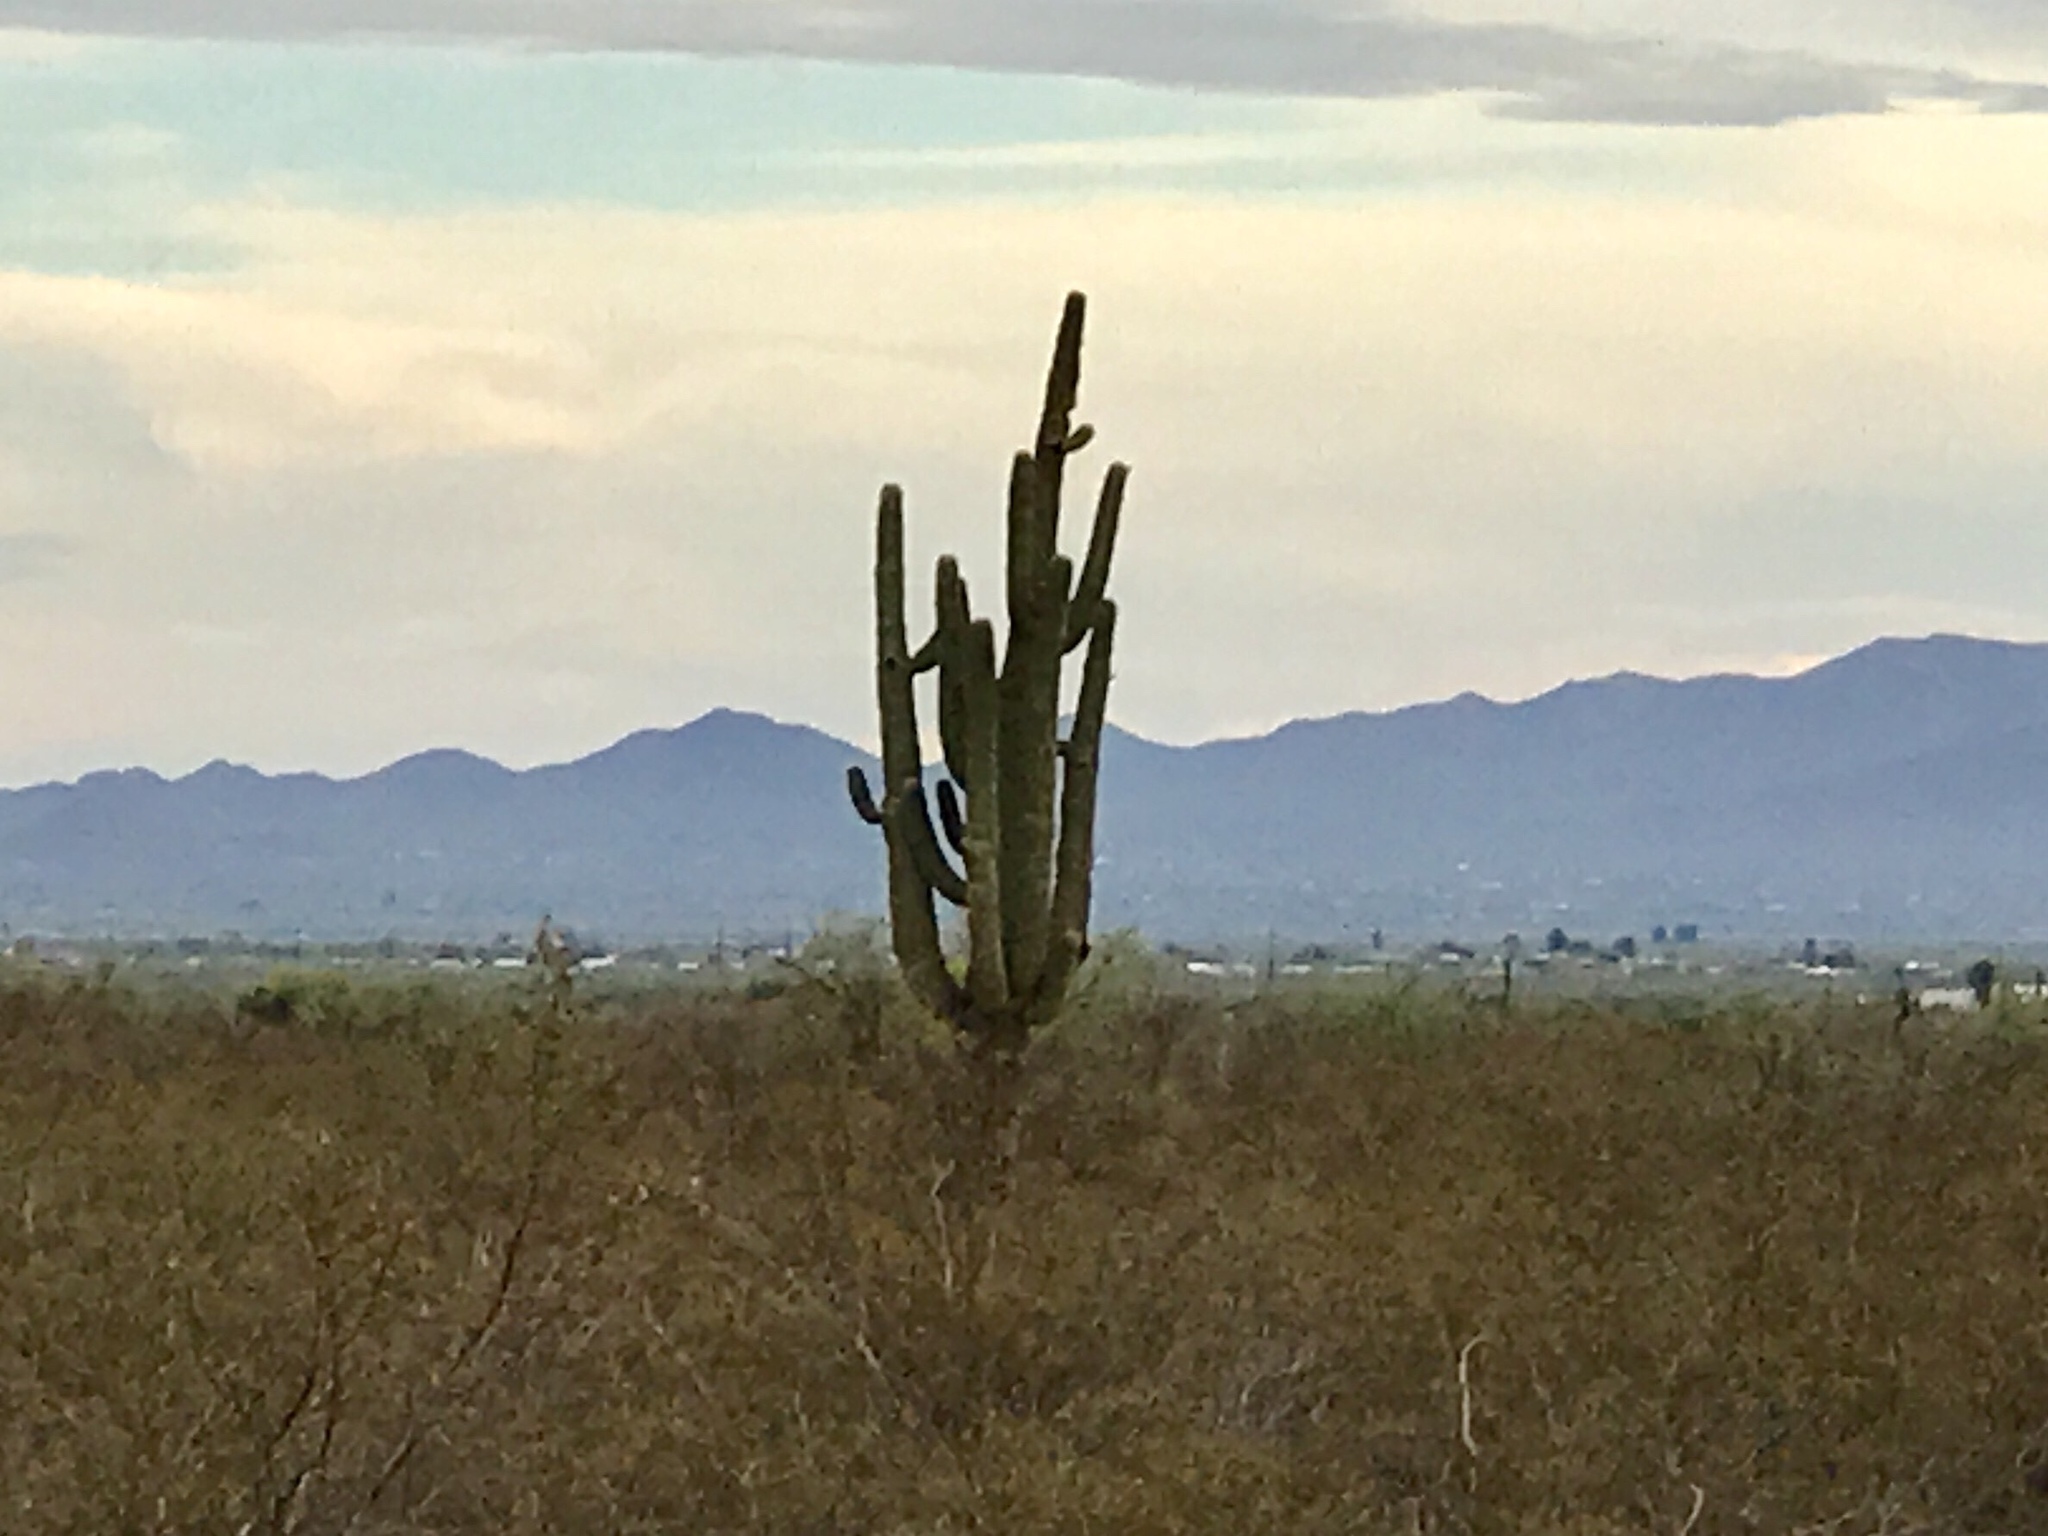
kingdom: Plantae
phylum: Tracheophyta
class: Magnoliopsida
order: Caryophyllales
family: Cactaceae
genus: Carnegiea
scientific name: Carnegiea gigantea
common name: Saguaro
